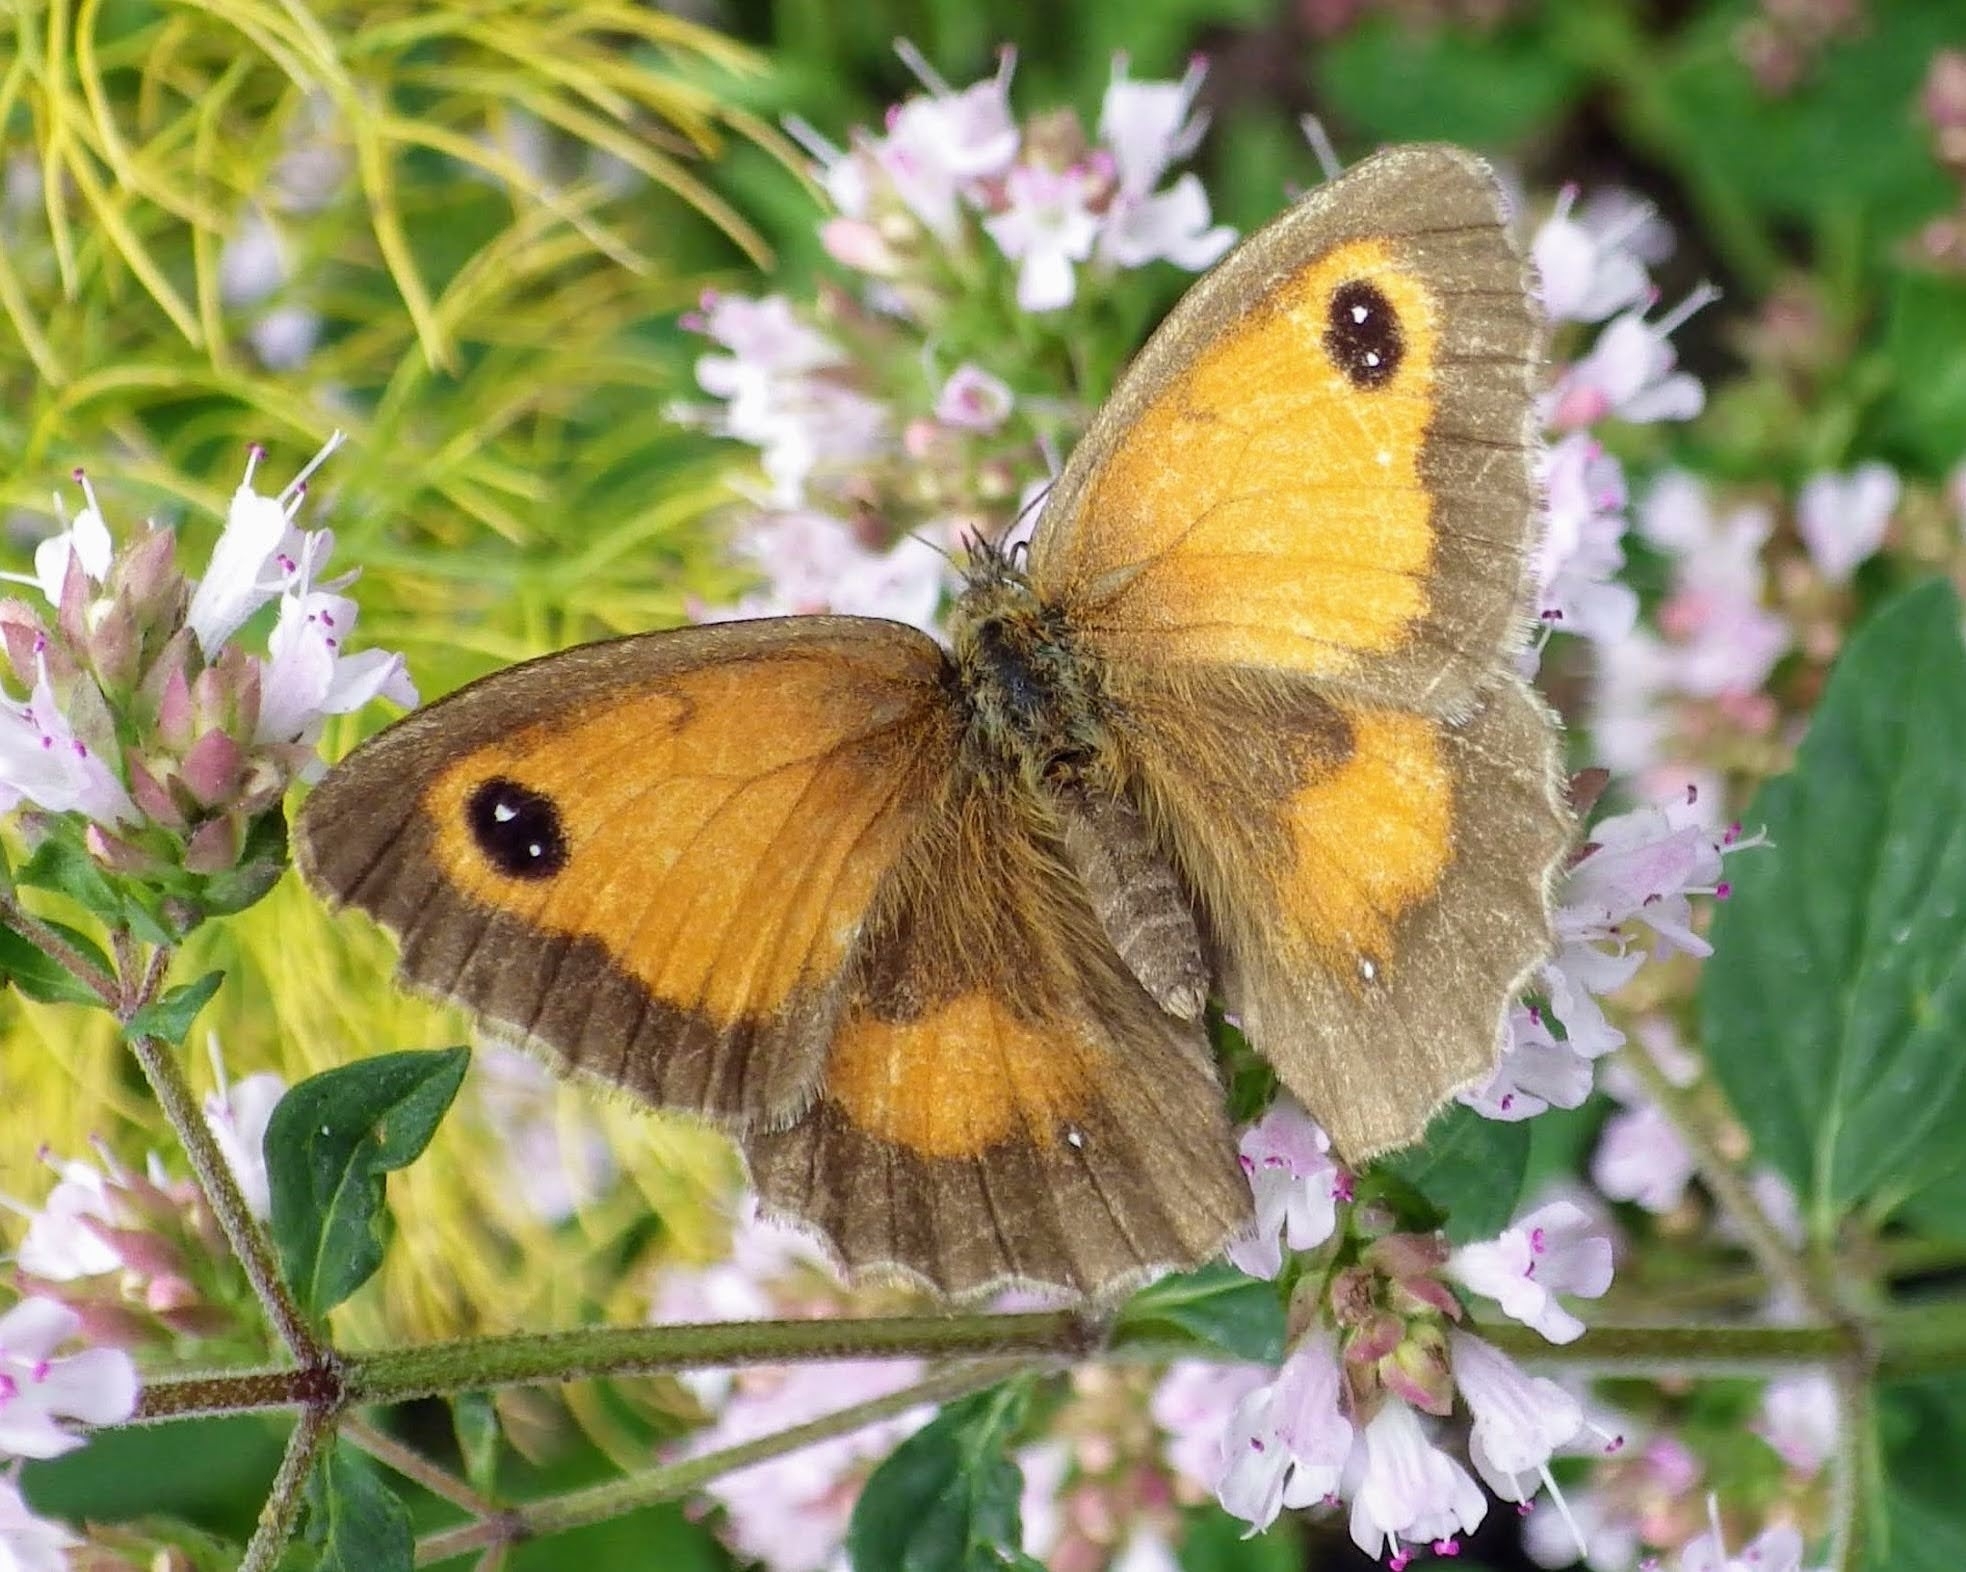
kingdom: Animalia
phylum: Arthropoda
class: Insecta
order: Lepidoptera
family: Nymphalidae
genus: Pyronia
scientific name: Pyronia tithonus
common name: Gatekeeper
